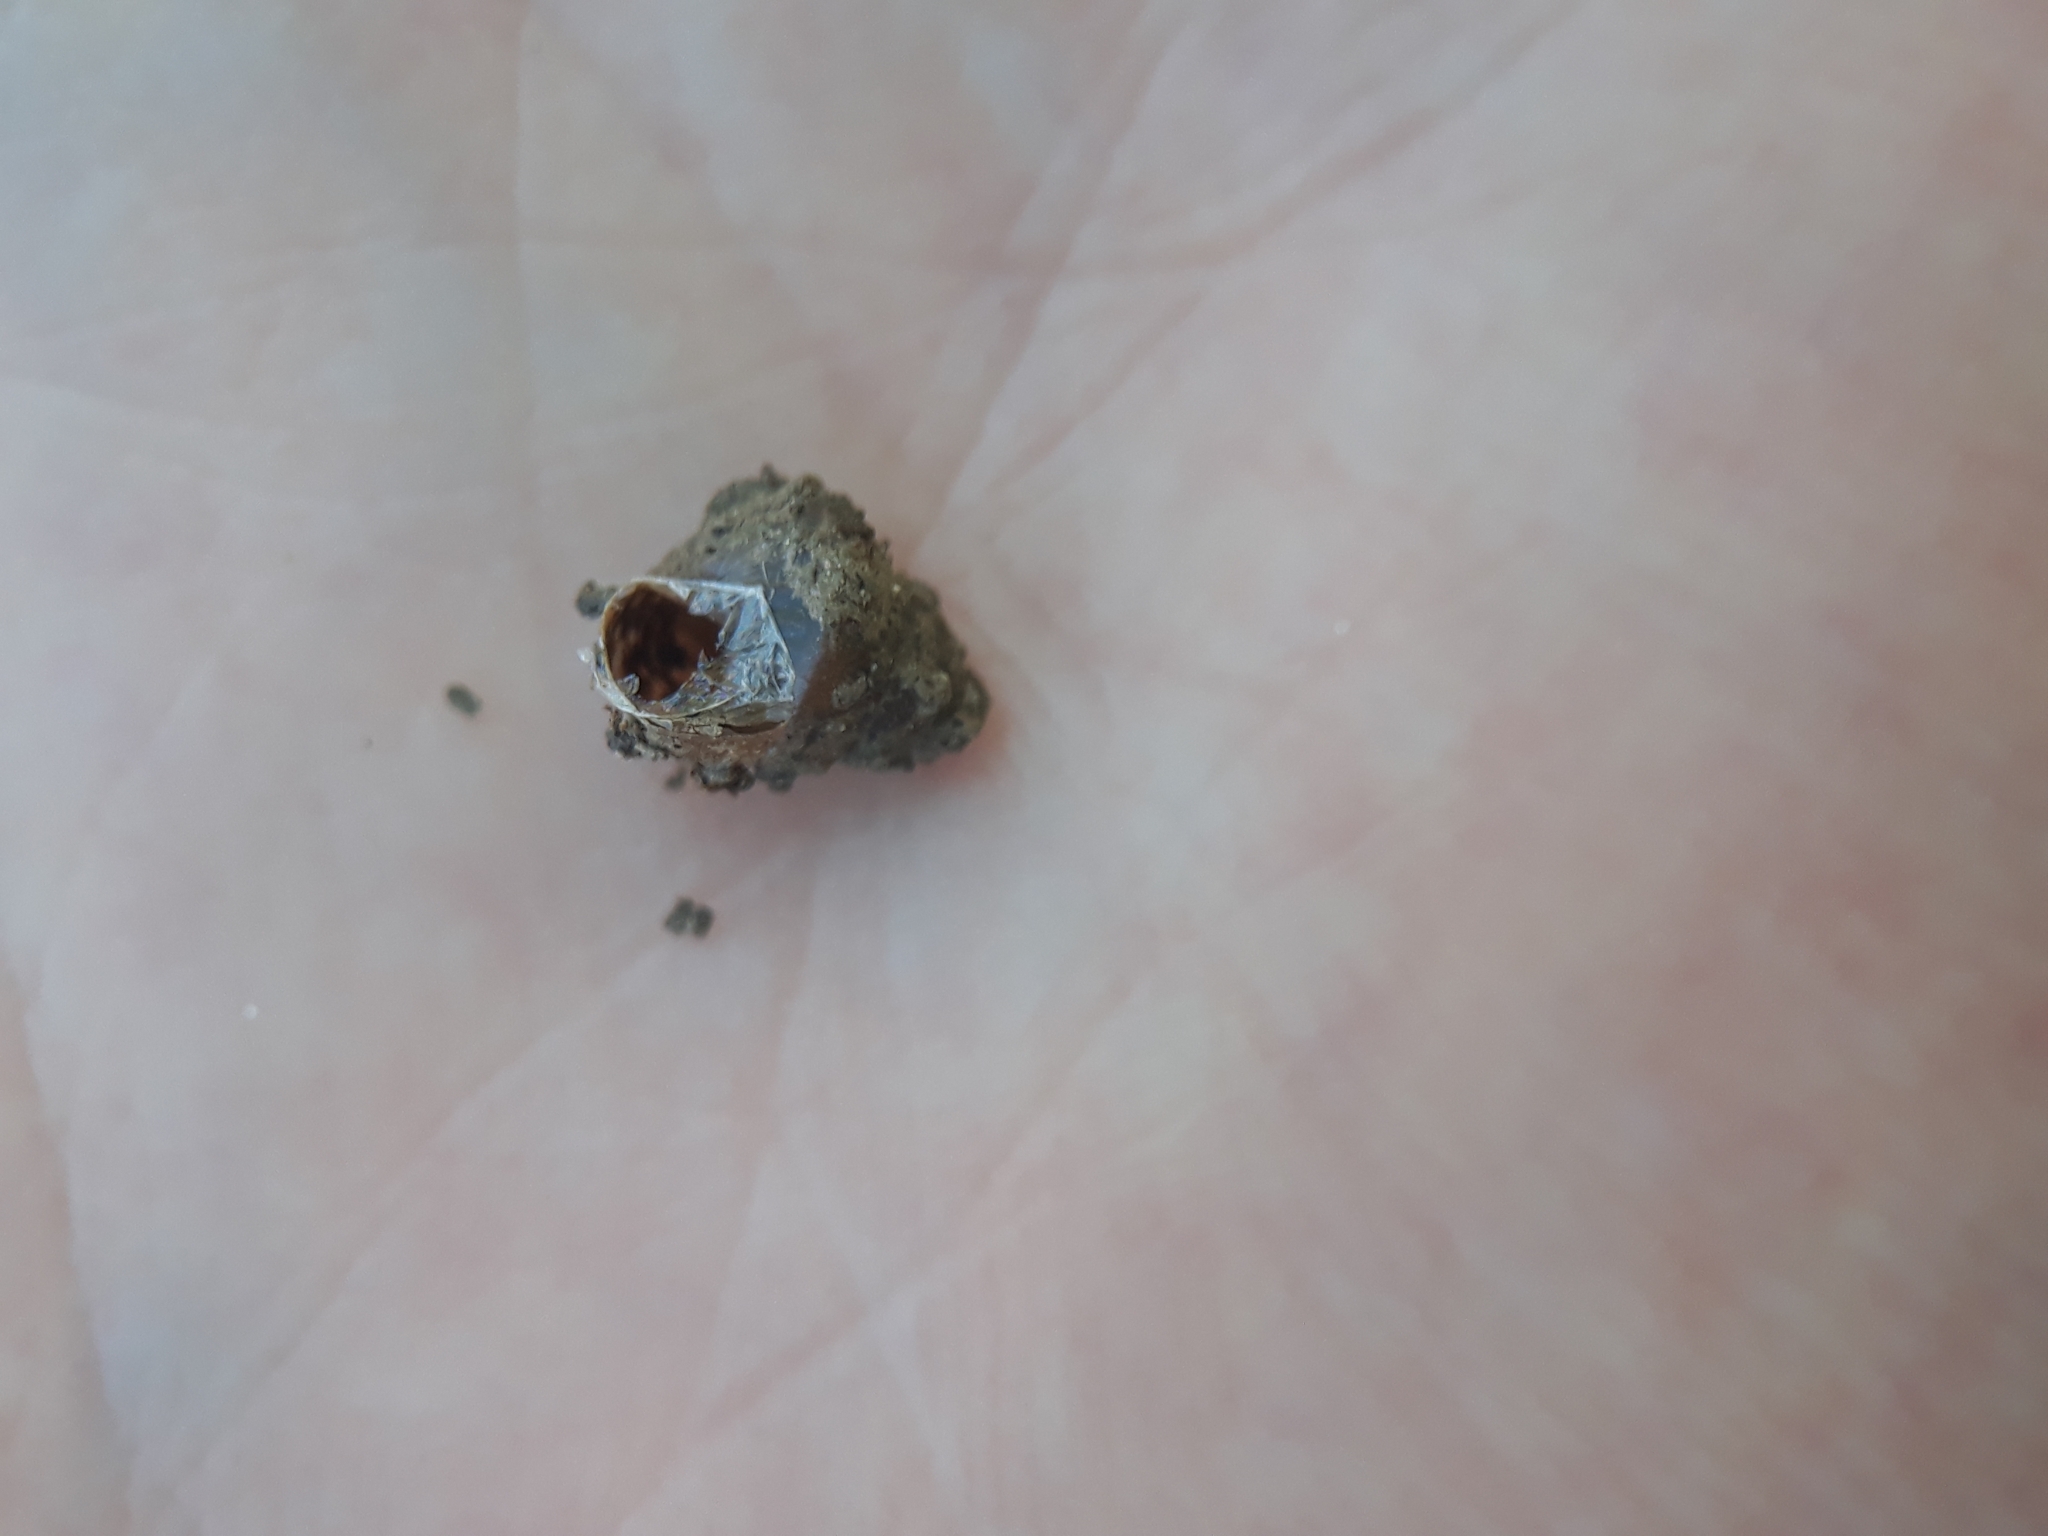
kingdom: Animalia
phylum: Mollusca
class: Gastropoda
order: Stylommatophora
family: Enidae
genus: Merdigera
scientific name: Merdigera obscura
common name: Lesser bulin
